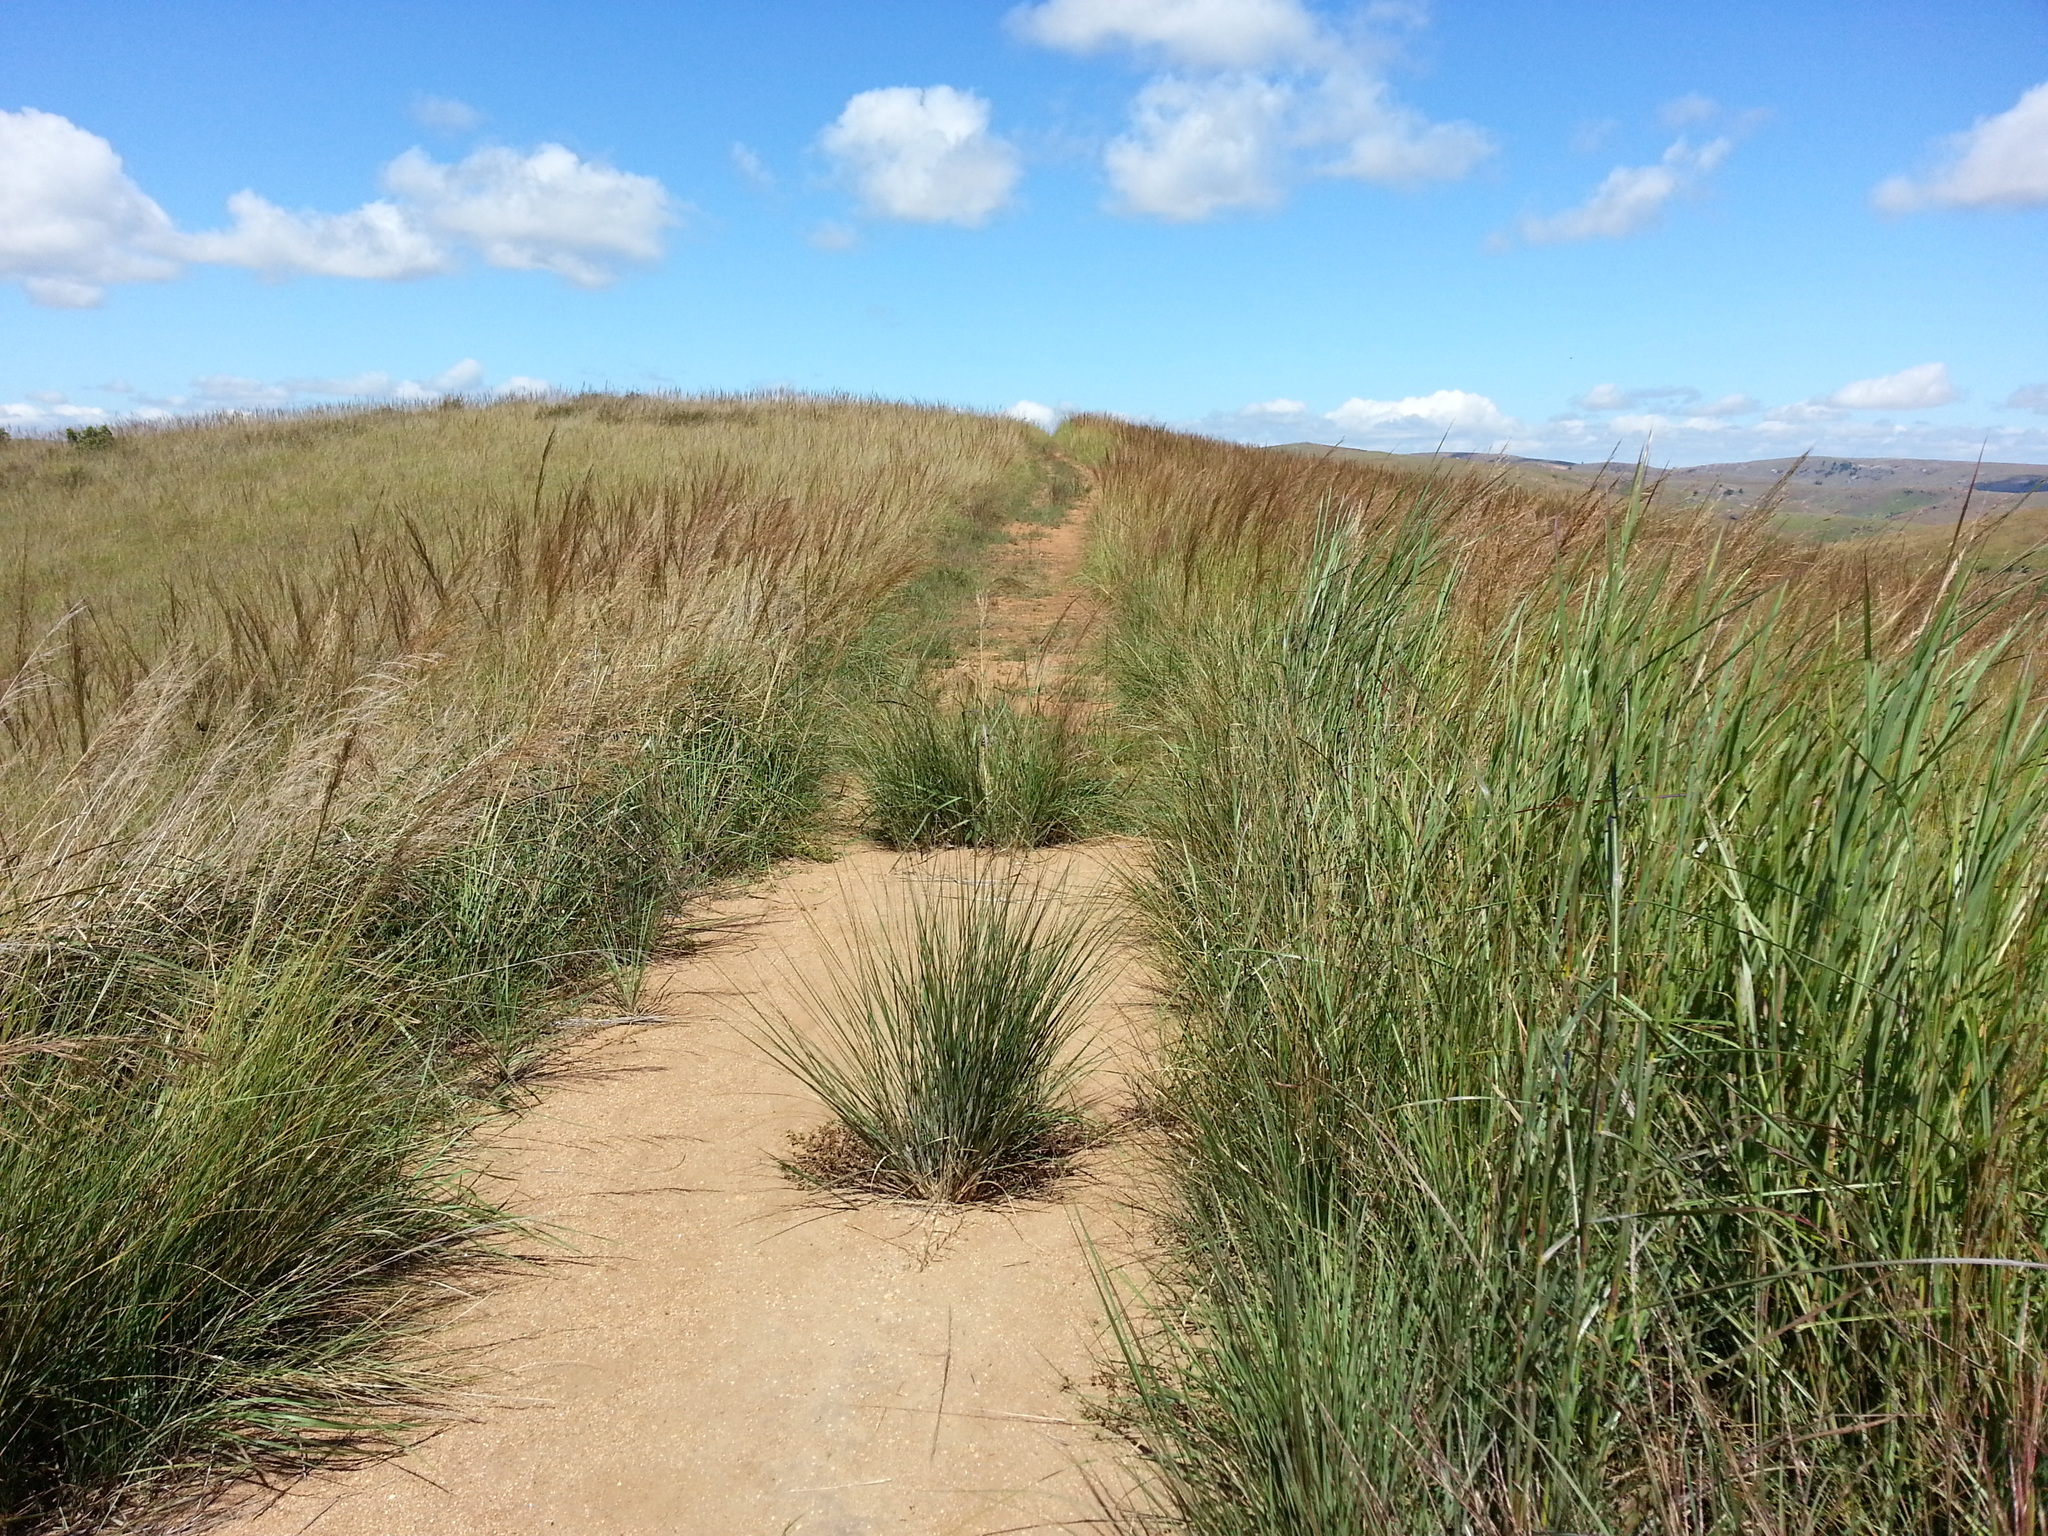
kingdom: Plantae
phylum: Tracheophyta
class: Liliopsida
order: Poales
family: Poaceae
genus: Loudetia
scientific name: Loudetia simplex
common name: Common russet grass
